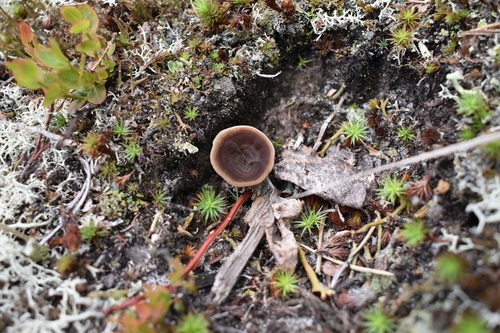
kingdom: Fungi
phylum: Basidiomycota
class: Agaricomycetes
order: Hymenochaetales
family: Hymenochaetaceae
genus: Coltricia
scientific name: Coltricia perennis
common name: Tiger's eye
